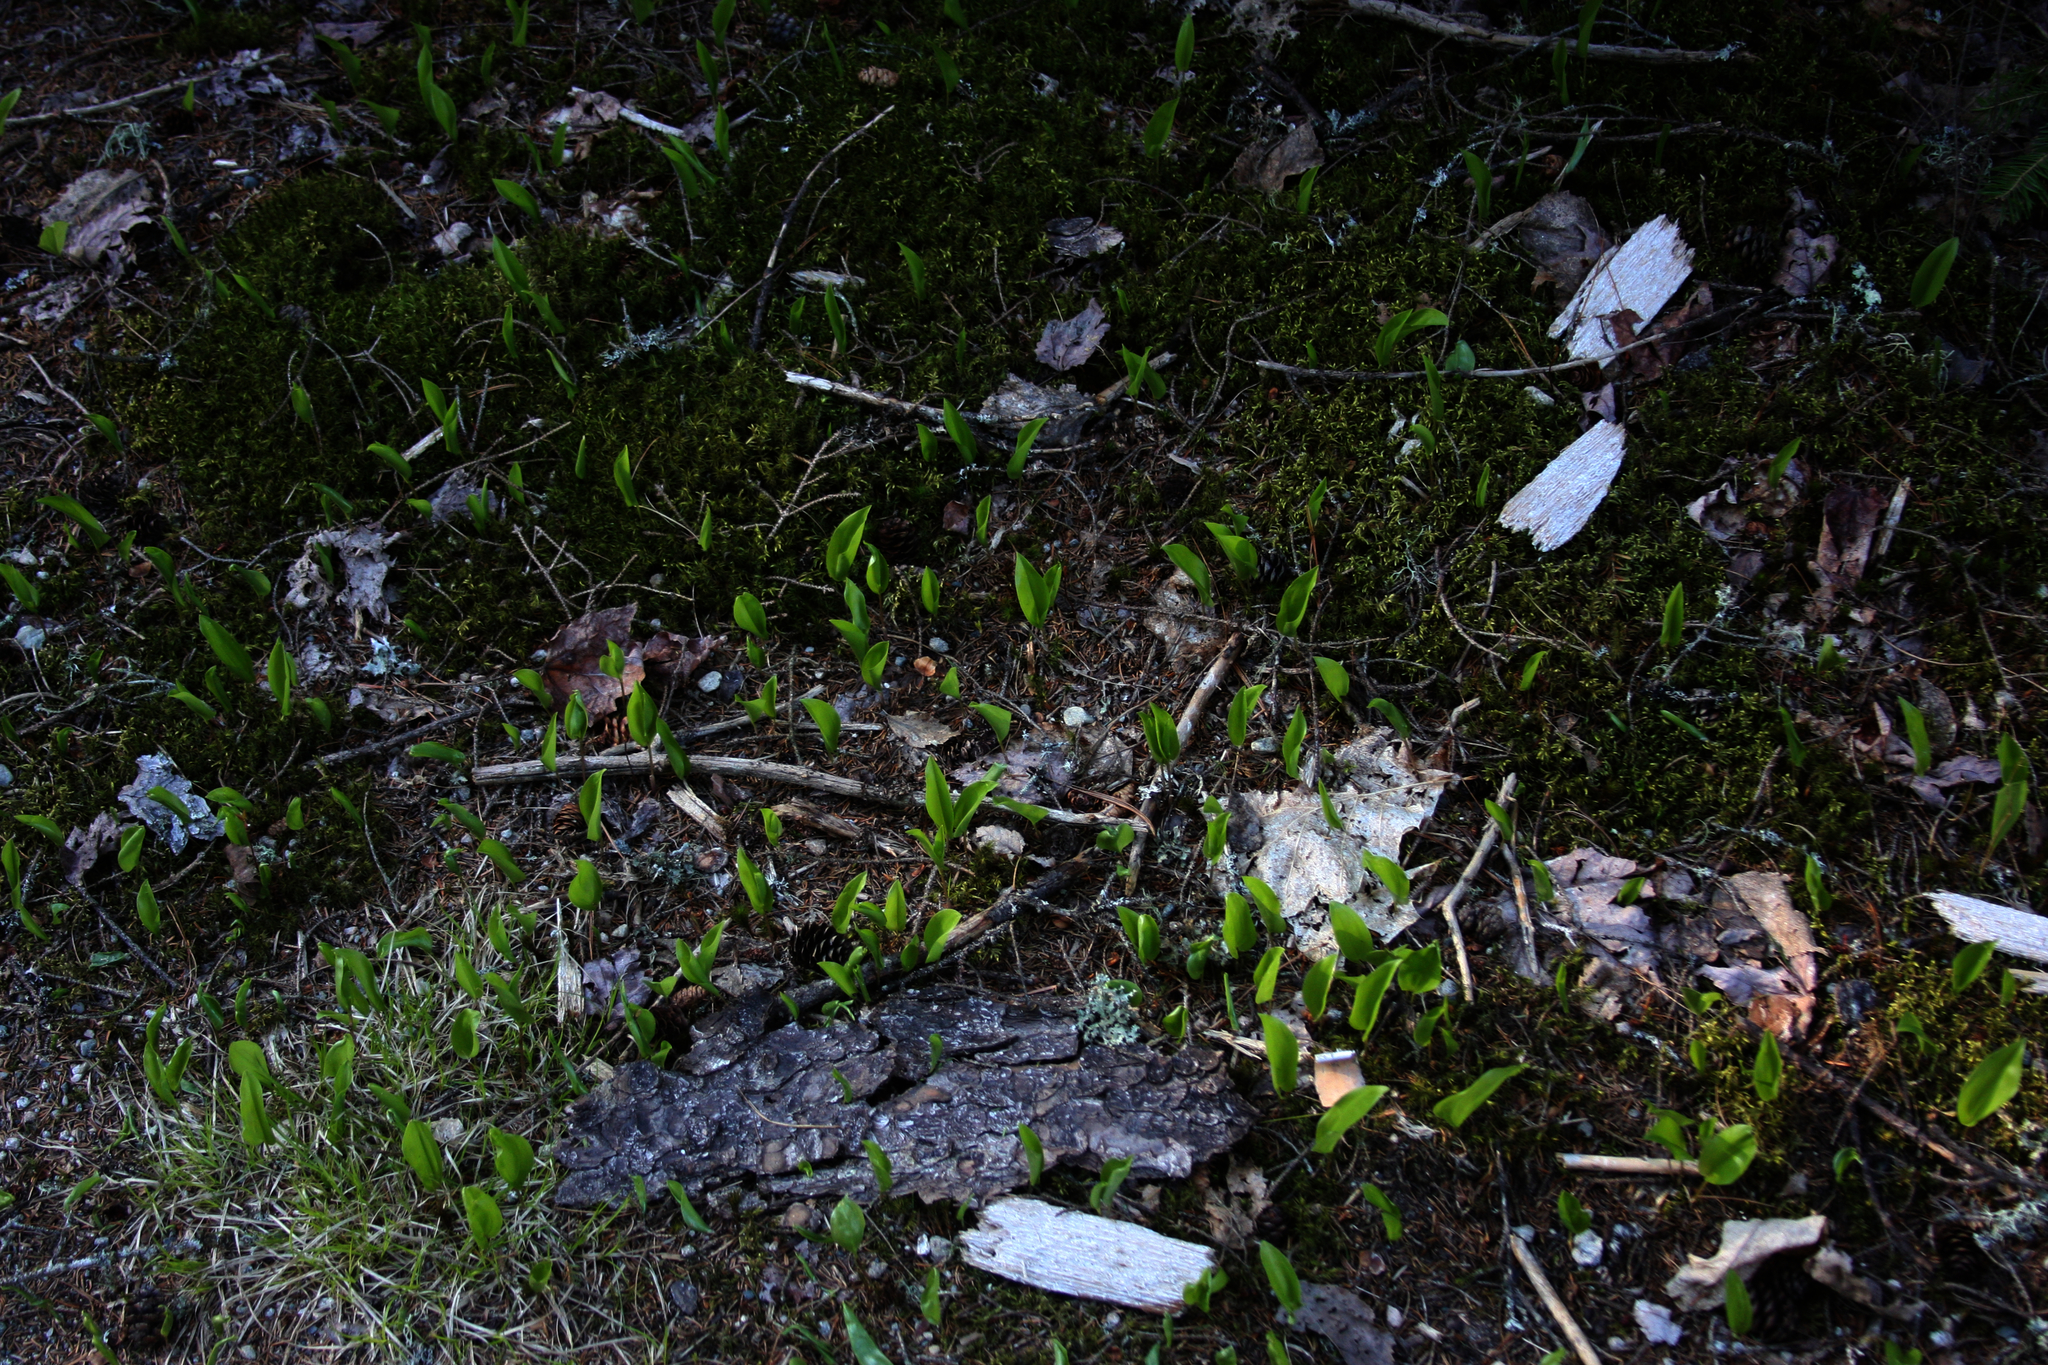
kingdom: Plantae
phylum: Tracheophyta
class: Liliopsida
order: Asparagales
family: Asparagaceae
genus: Maianthemum
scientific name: Maianthemum canadense
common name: False lily-of-the-valley
